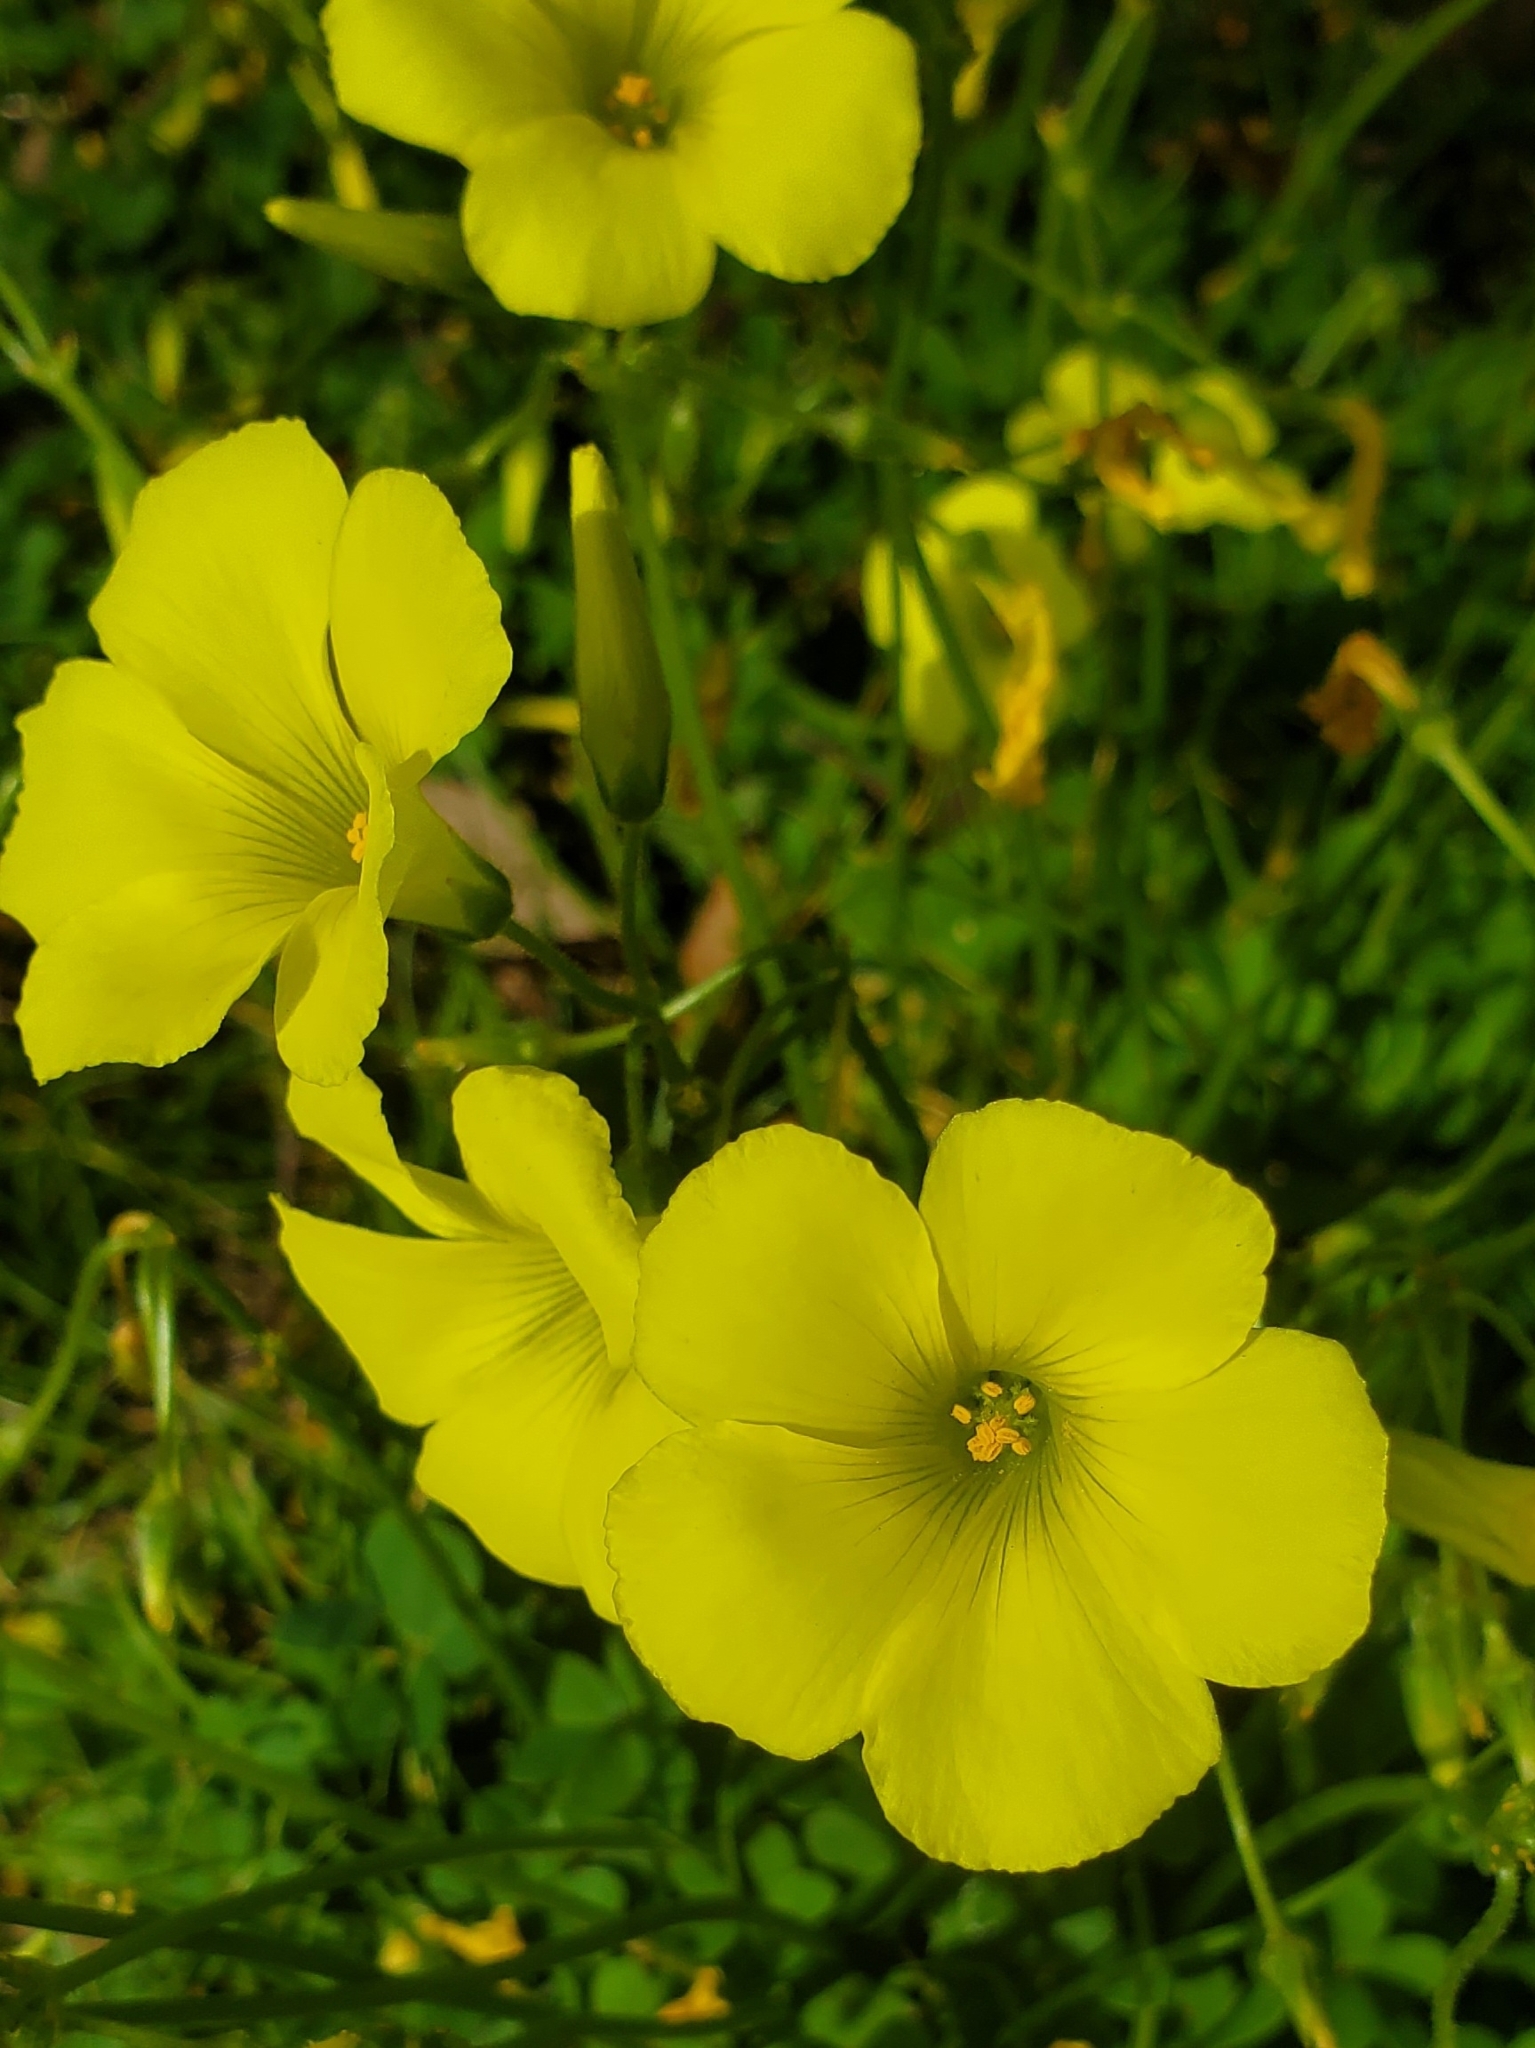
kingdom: Plantae
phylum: Tracheophyta
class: Magnoliopsida
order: Oxalidales
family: Oxalidaceae
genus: Oxalis
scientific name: Oxalis pes-caprae
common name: Bermuda-buttercup
